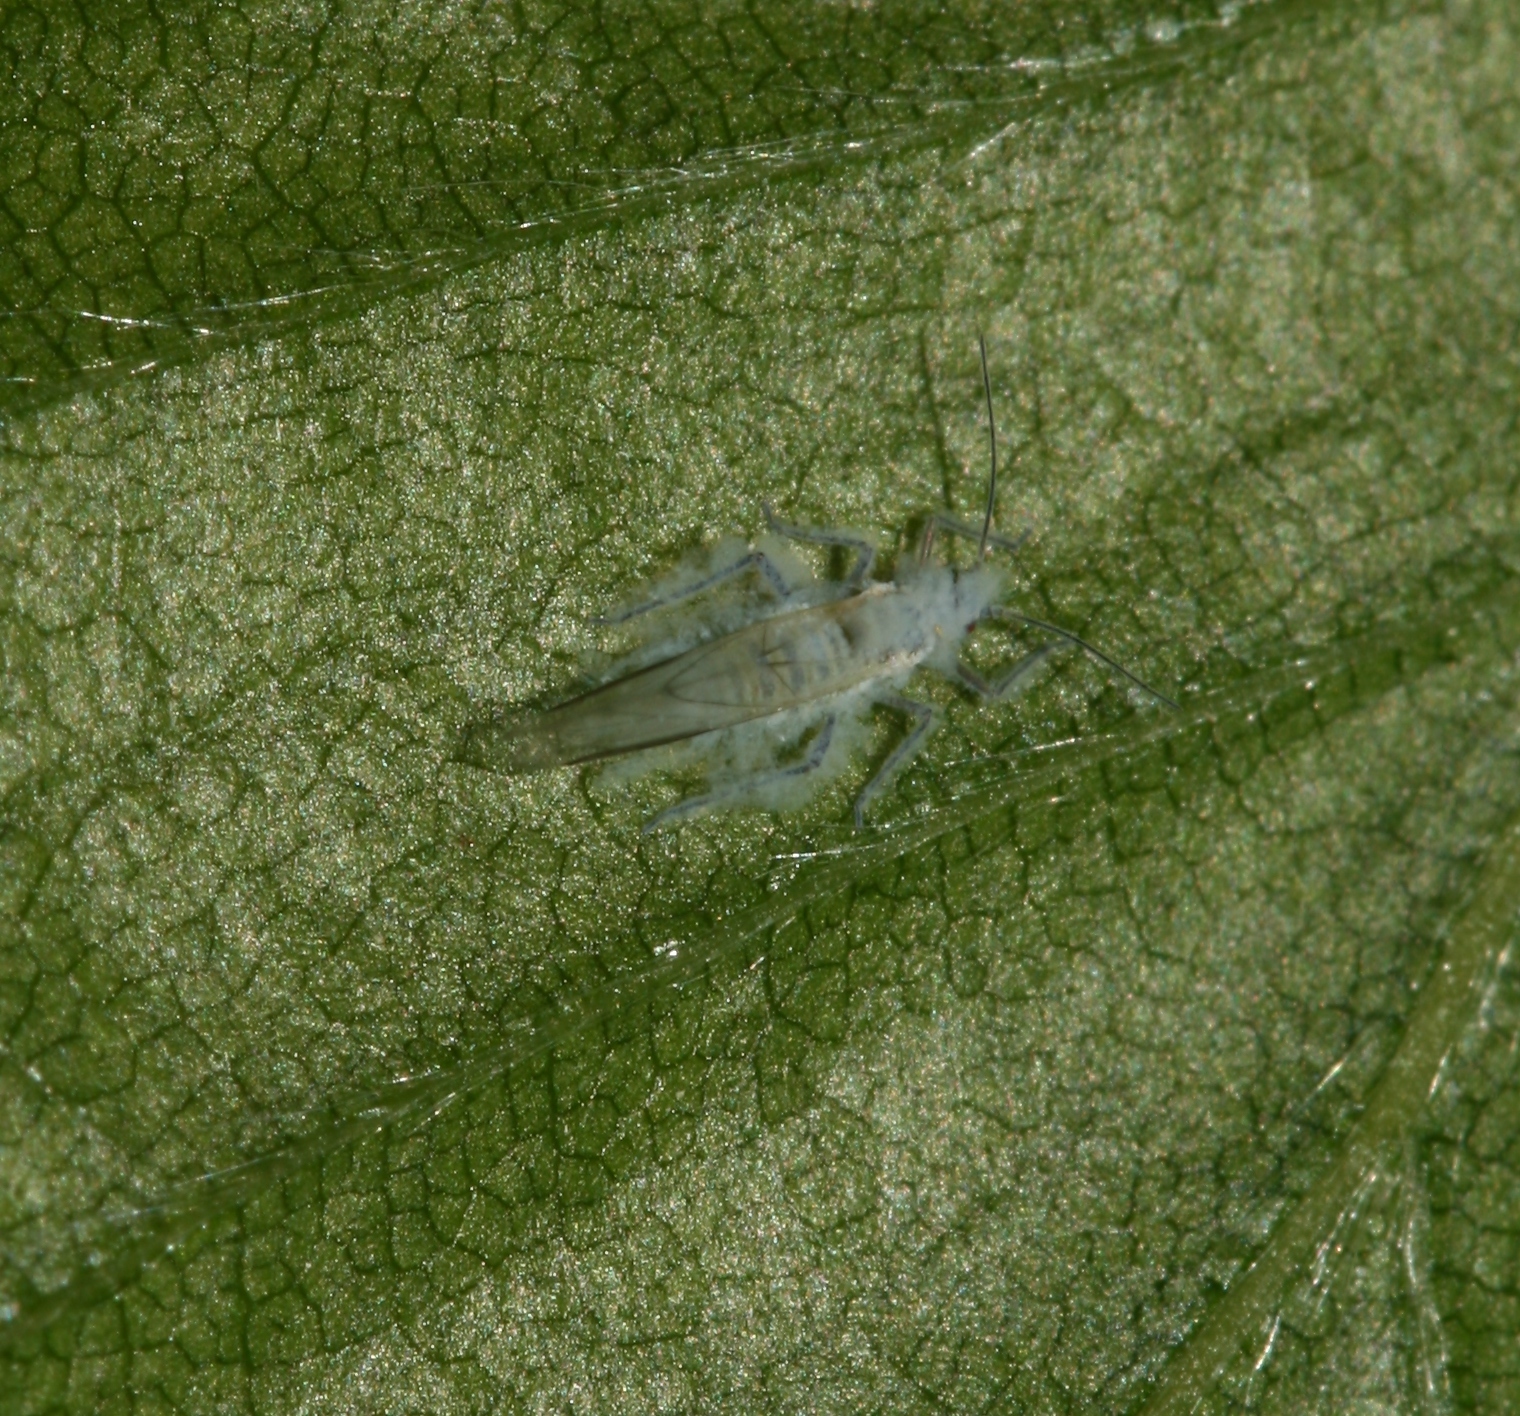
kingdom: Animalia
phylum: Arthropoda
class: Insecta
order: Hemiptera
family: Aphididae
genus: Phyllaphis
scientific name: Phyllaphis fagi
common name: Beech aphid
